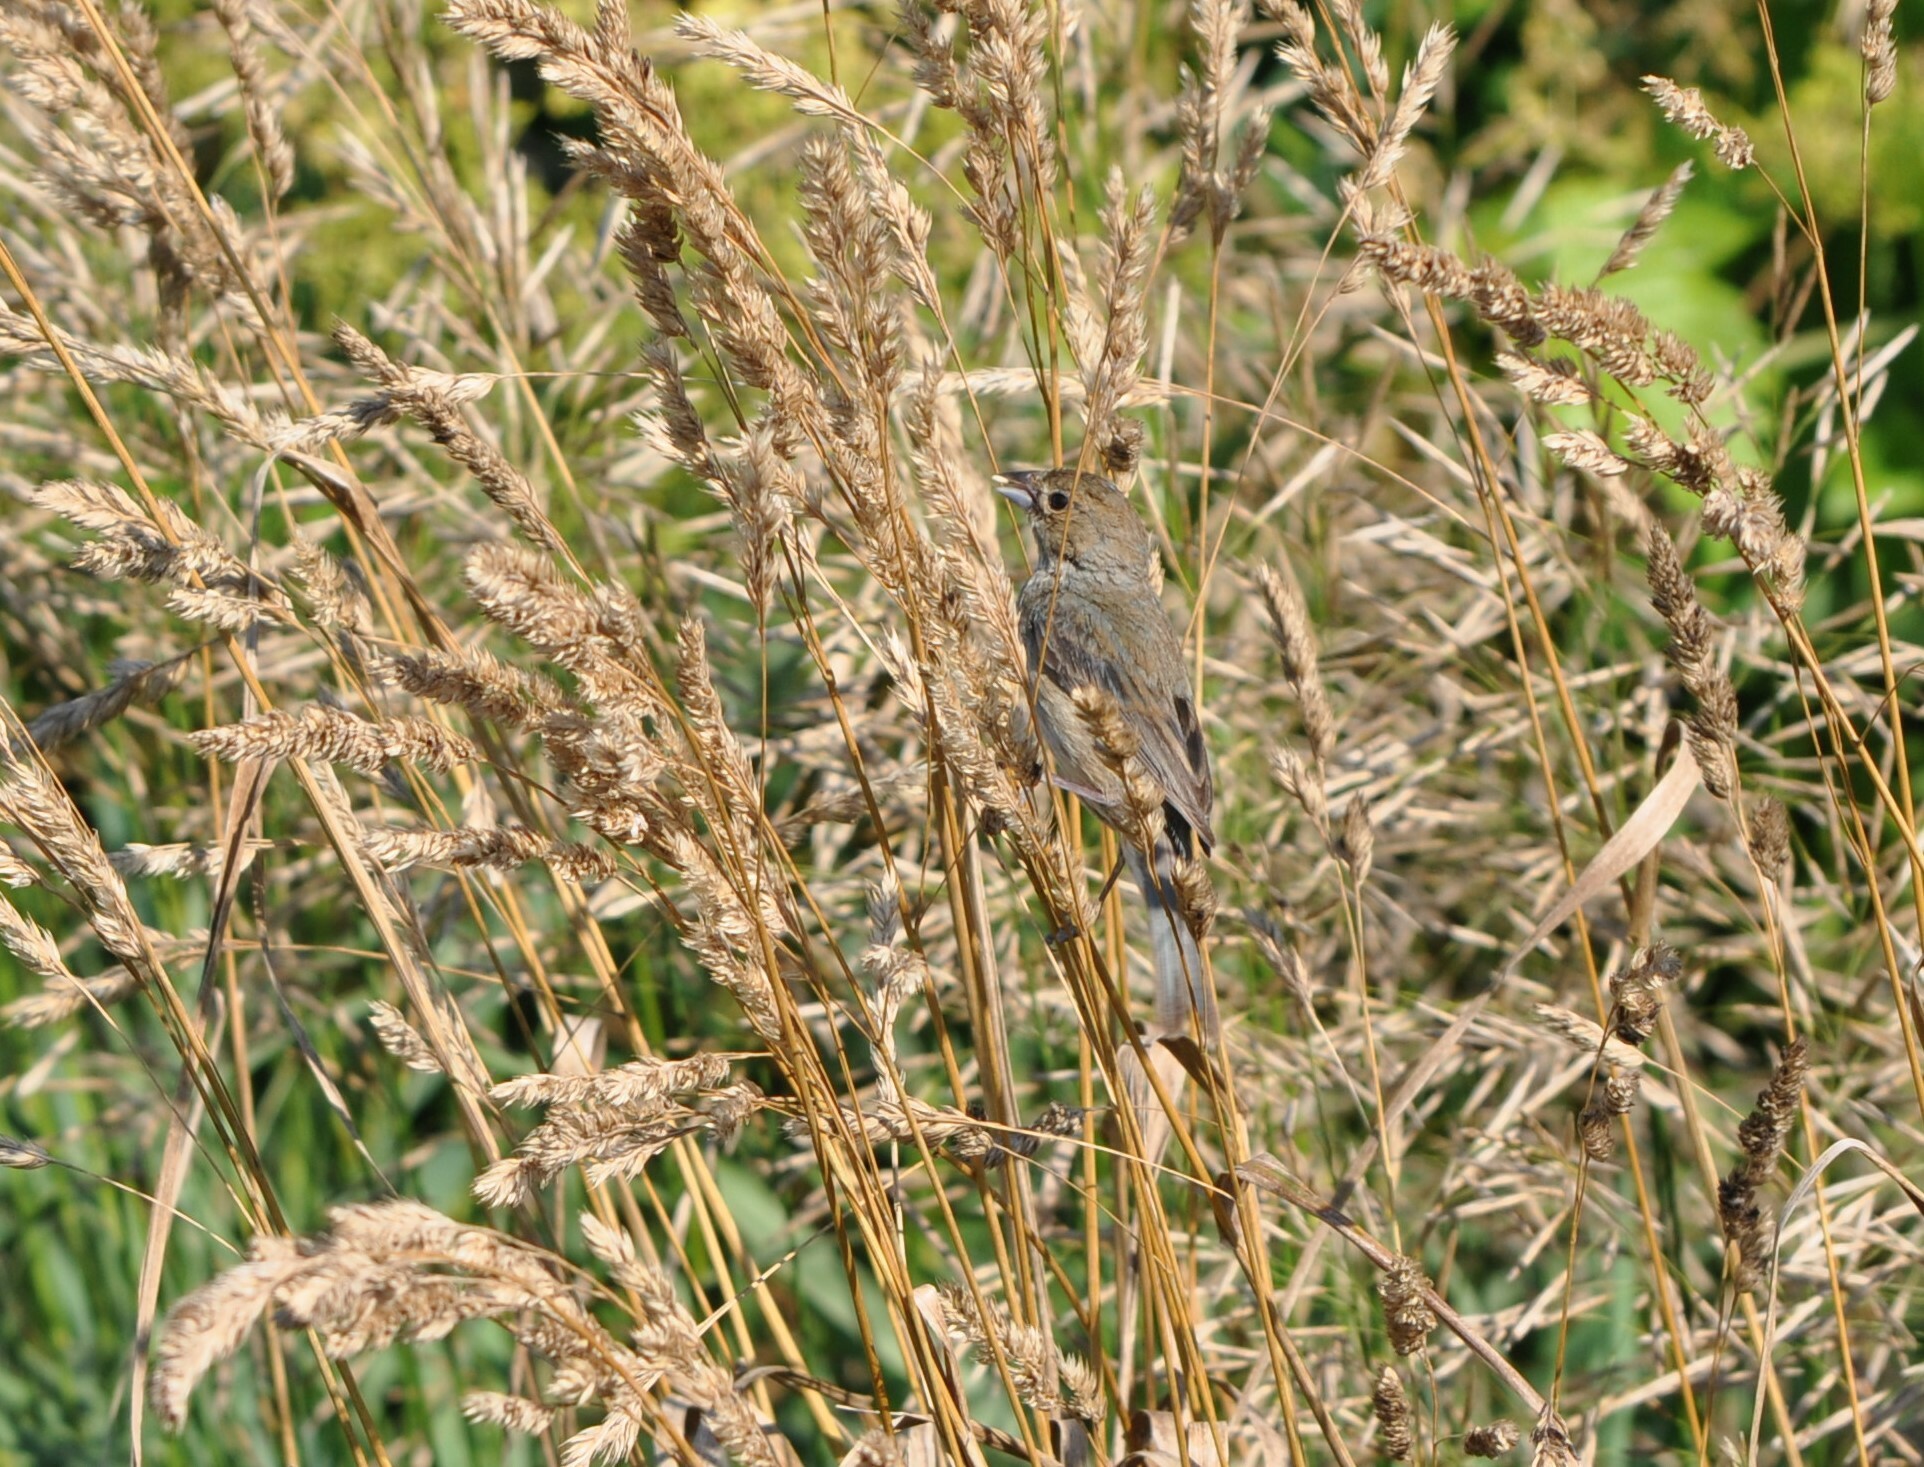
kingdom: Animalia
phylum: Chordata
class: Aves
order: Passeriformes
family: Cardinalidae
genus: Passerina
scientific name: Passerina cyanea
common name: Indigo bunting
